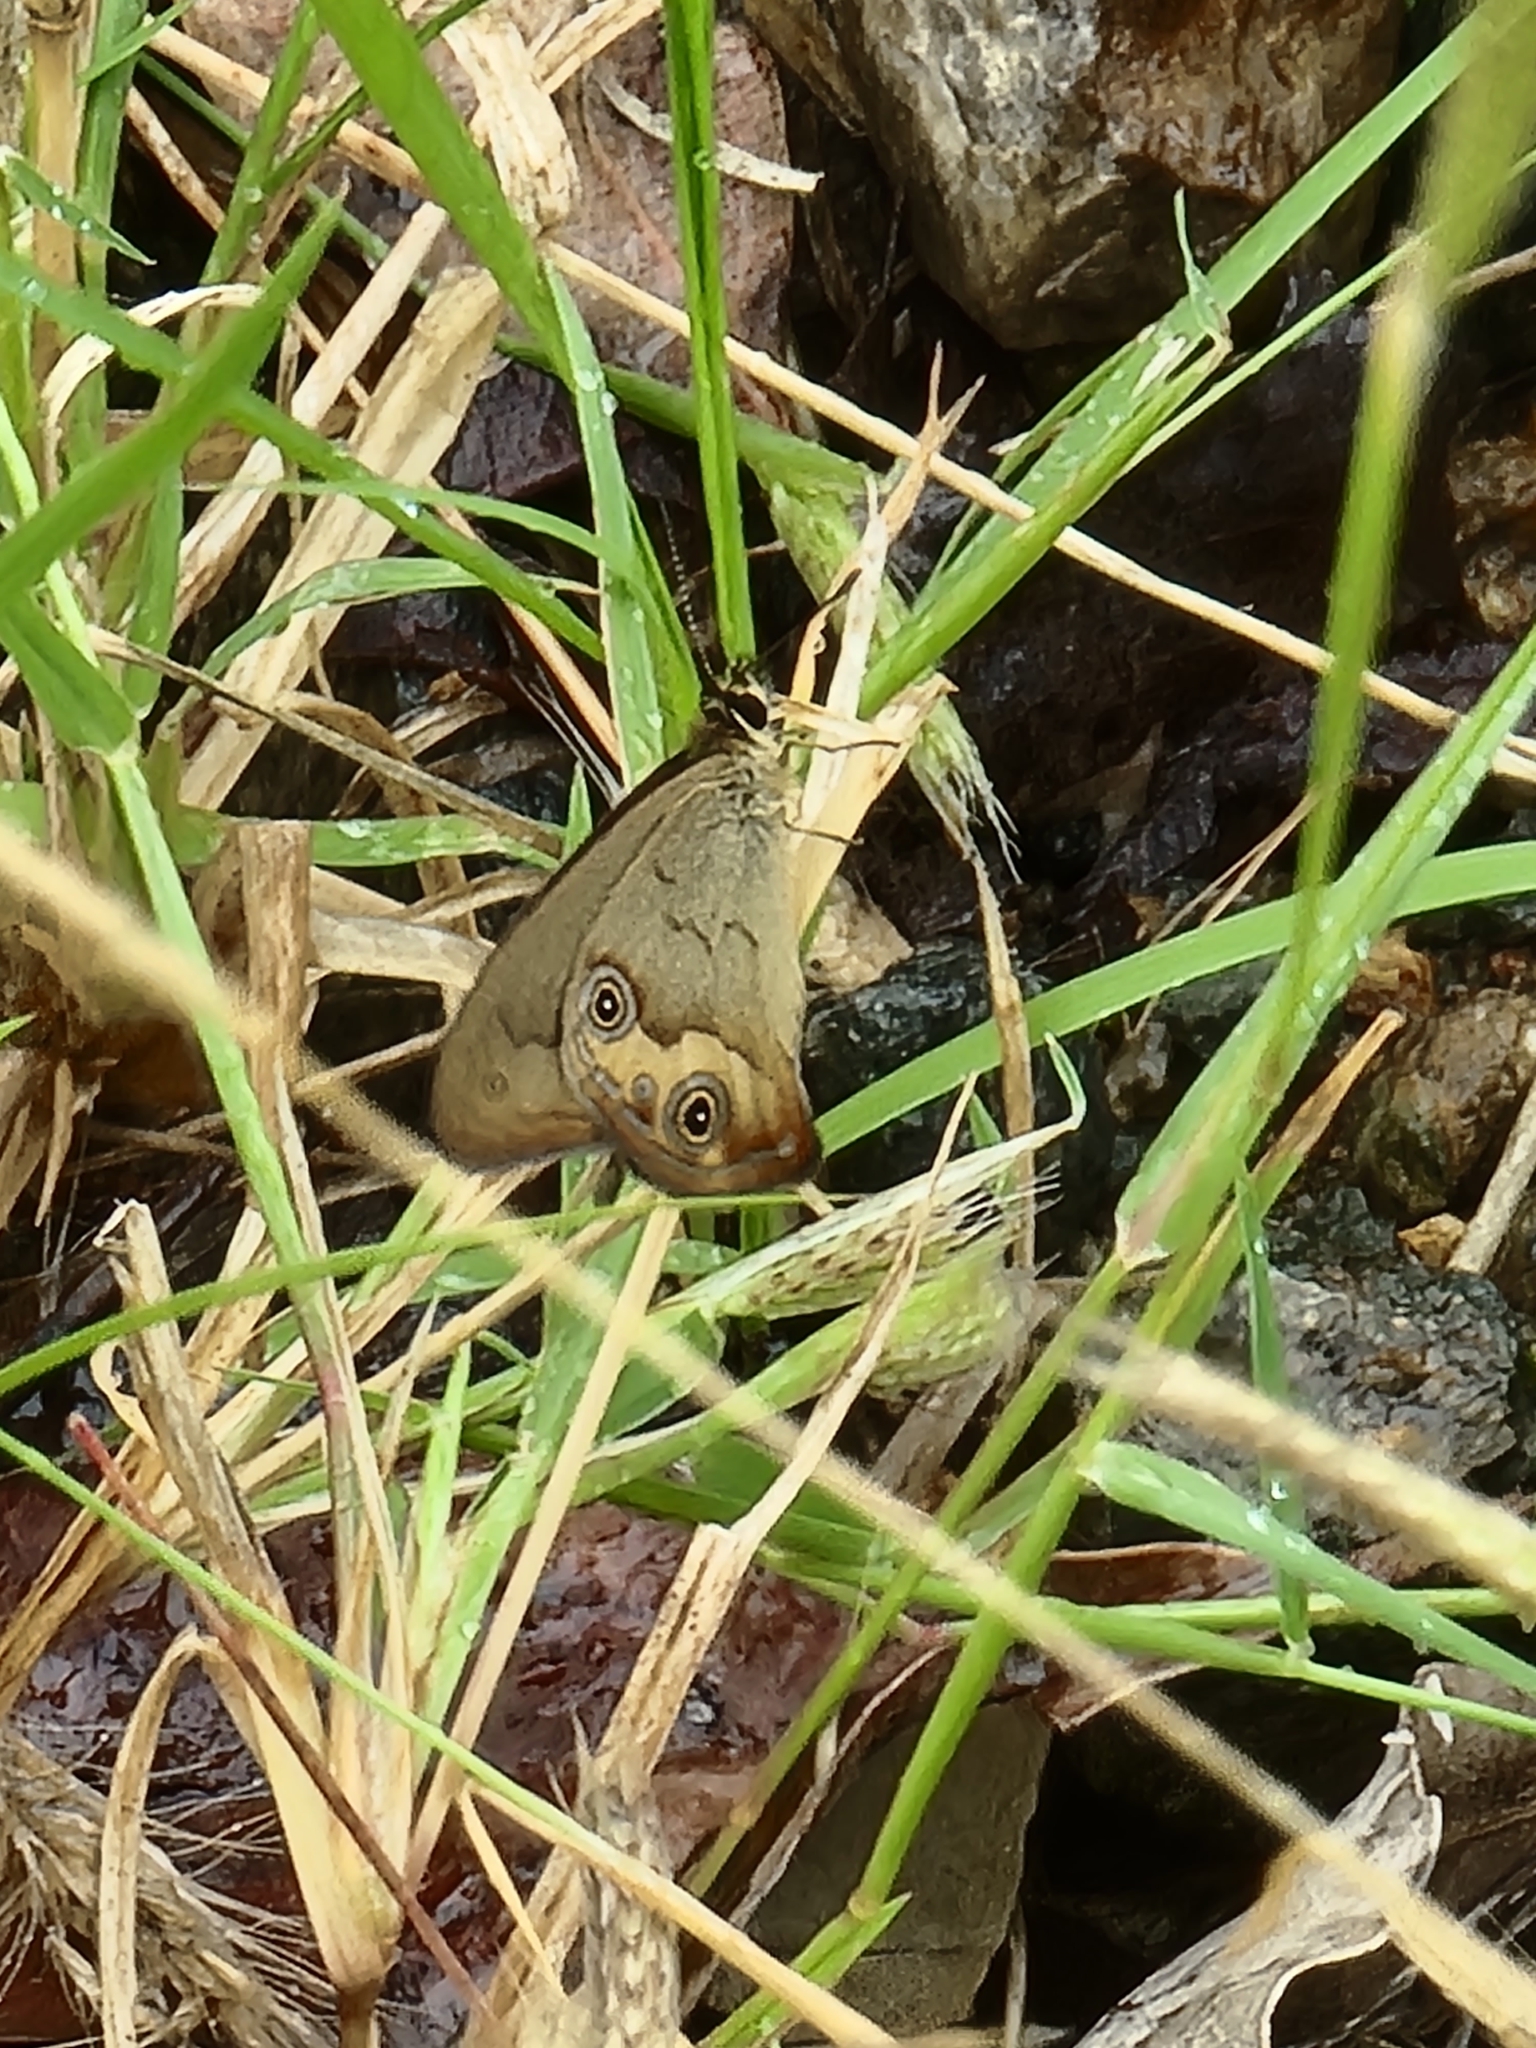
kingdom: Animalia
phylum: Arthropoda
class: Insecta
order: Lepidoptera
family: Nymphalidae
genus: Hypocysta
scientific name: Hypocysta metirius
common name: Brown ringlet
